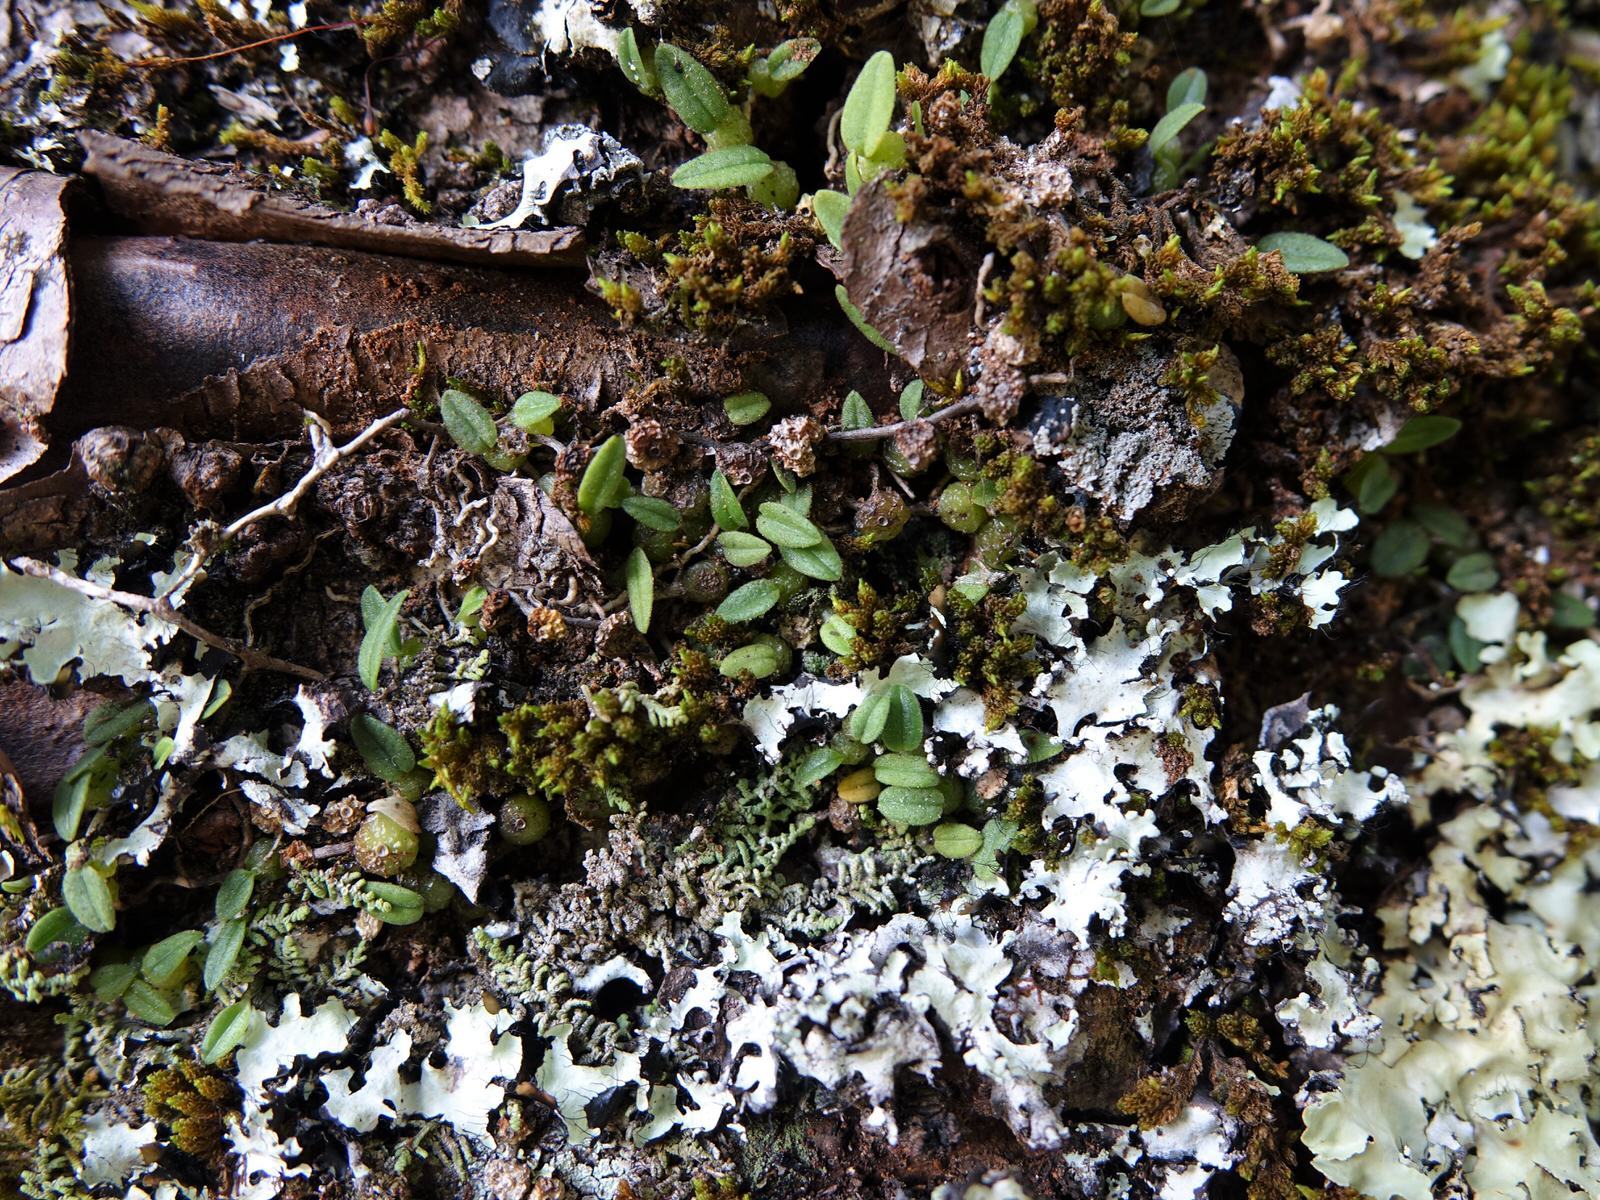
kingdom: Plantae
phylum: Tracheophyta
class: Liliopsida
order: Asparagales
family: Orchidaceae
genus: Bulbophyllum
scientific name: Bulbophyllum pygmaeum
